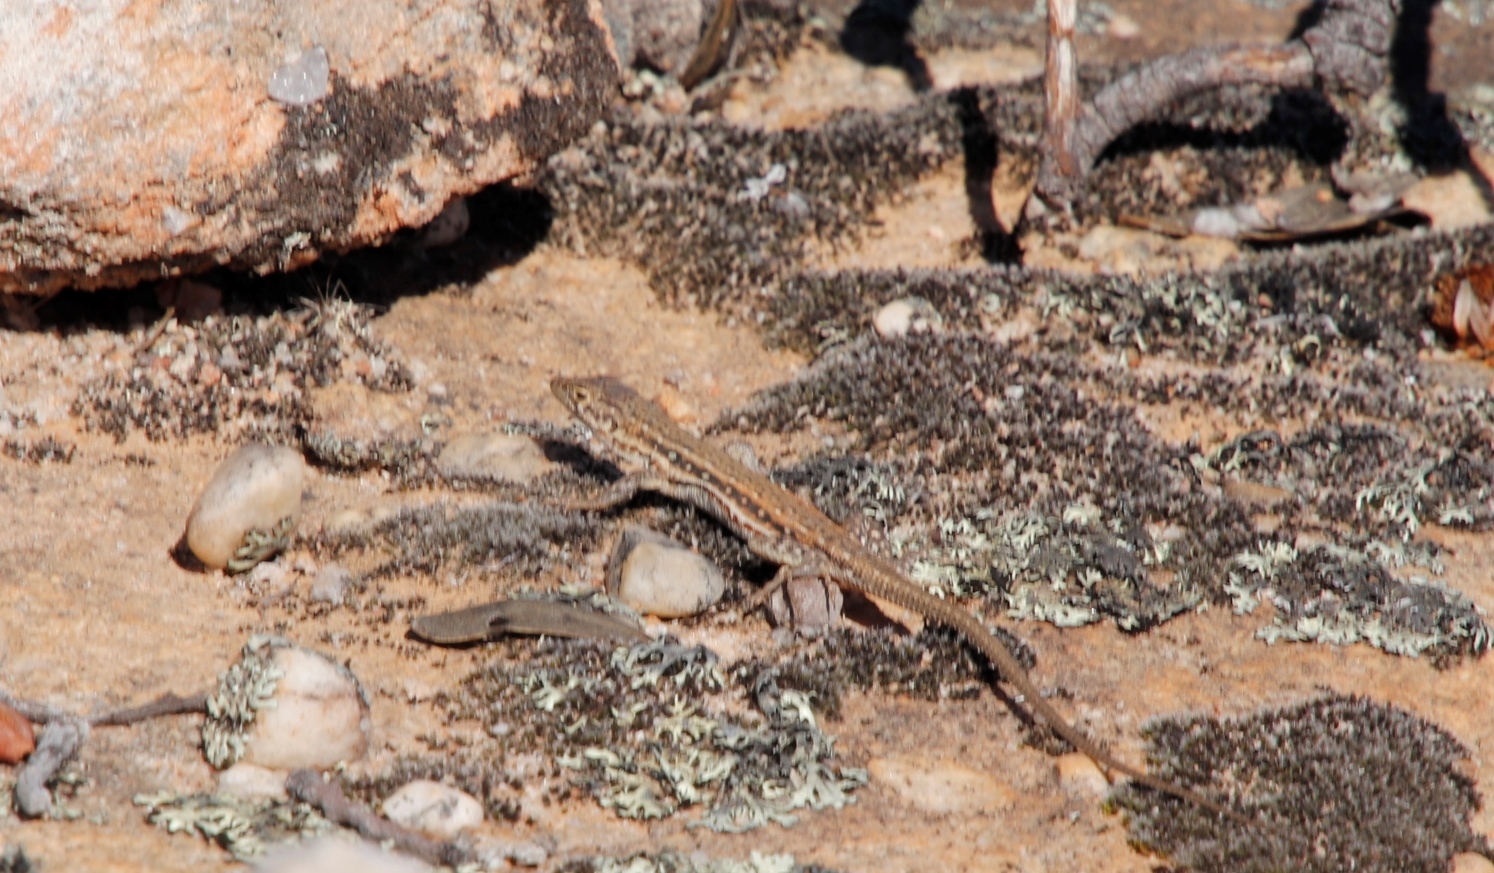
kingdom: Animalia
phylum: Chordata
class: Squamata
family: Lacertidae
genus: Pedioplanis
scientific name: Pedioplanis lineoocellata
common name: Spotted sand lizard
